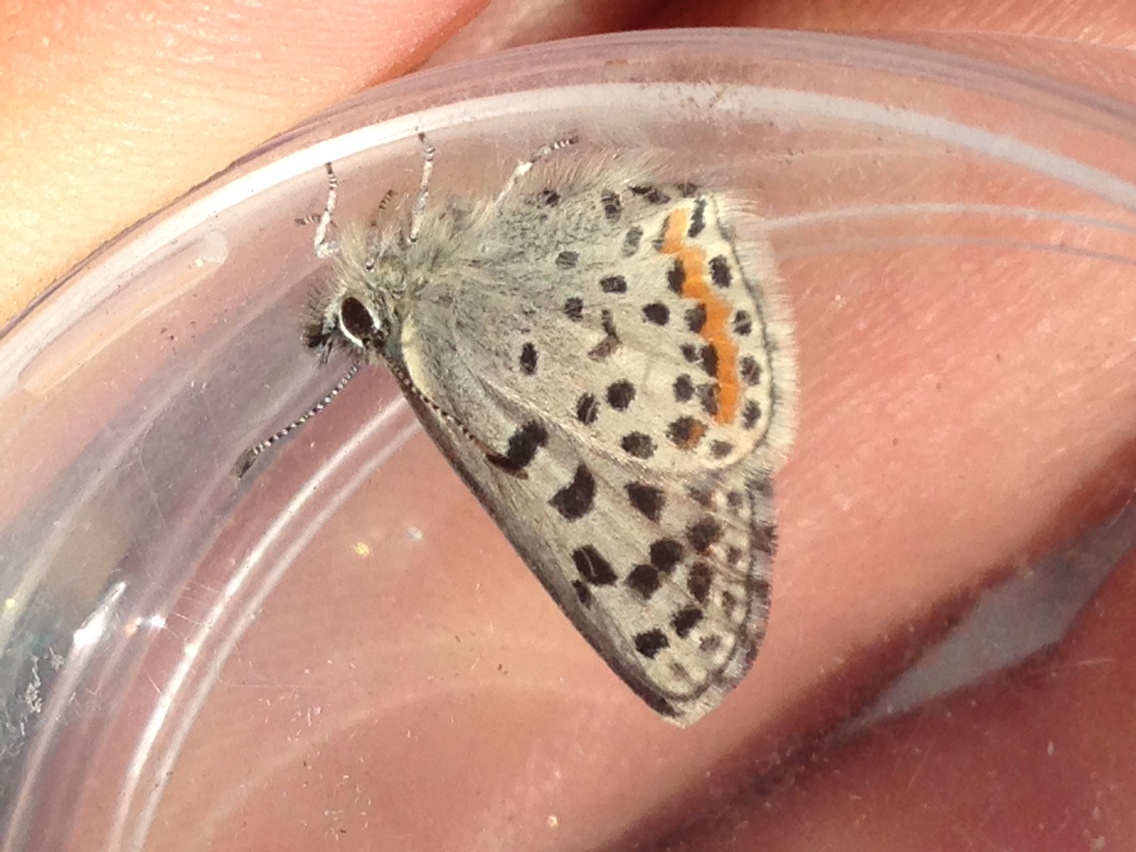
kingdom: Animalia
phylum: Arthropoda
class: Insecta
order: Lepidoptera
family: Lycaenidae
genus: Euphilotes
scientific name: Euphilotes enoptes
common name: Dotted blue
